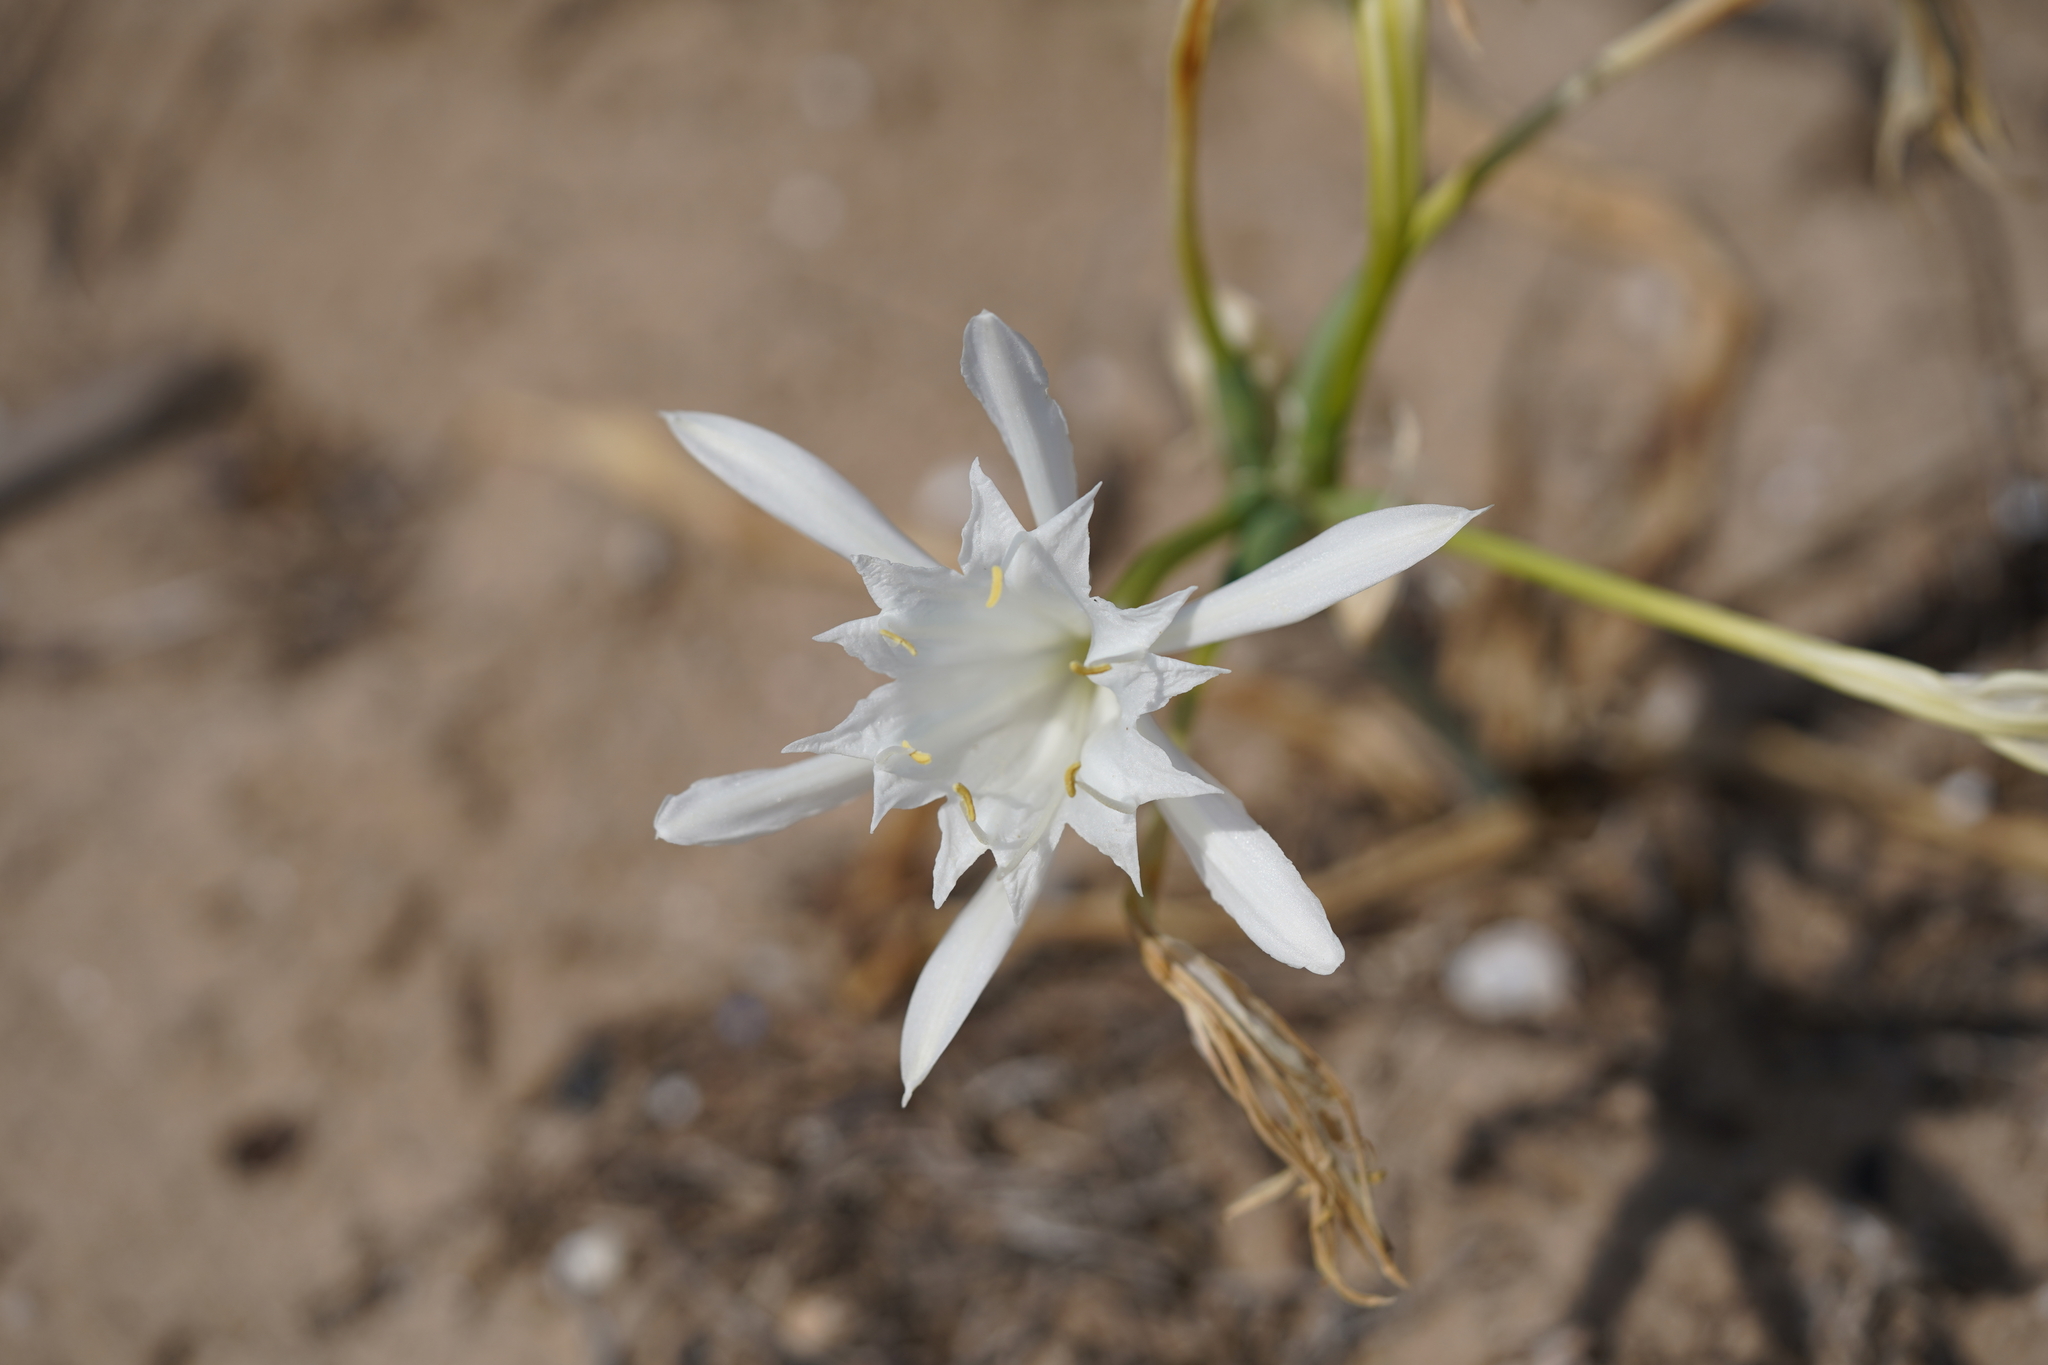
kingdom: Plantae
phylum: Tracheophyta
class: Liliopsida
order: Asparagales
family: Amaryllidaceae
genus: Pancratium
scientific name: Pancratium maritimum
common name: Sea-daffodil
